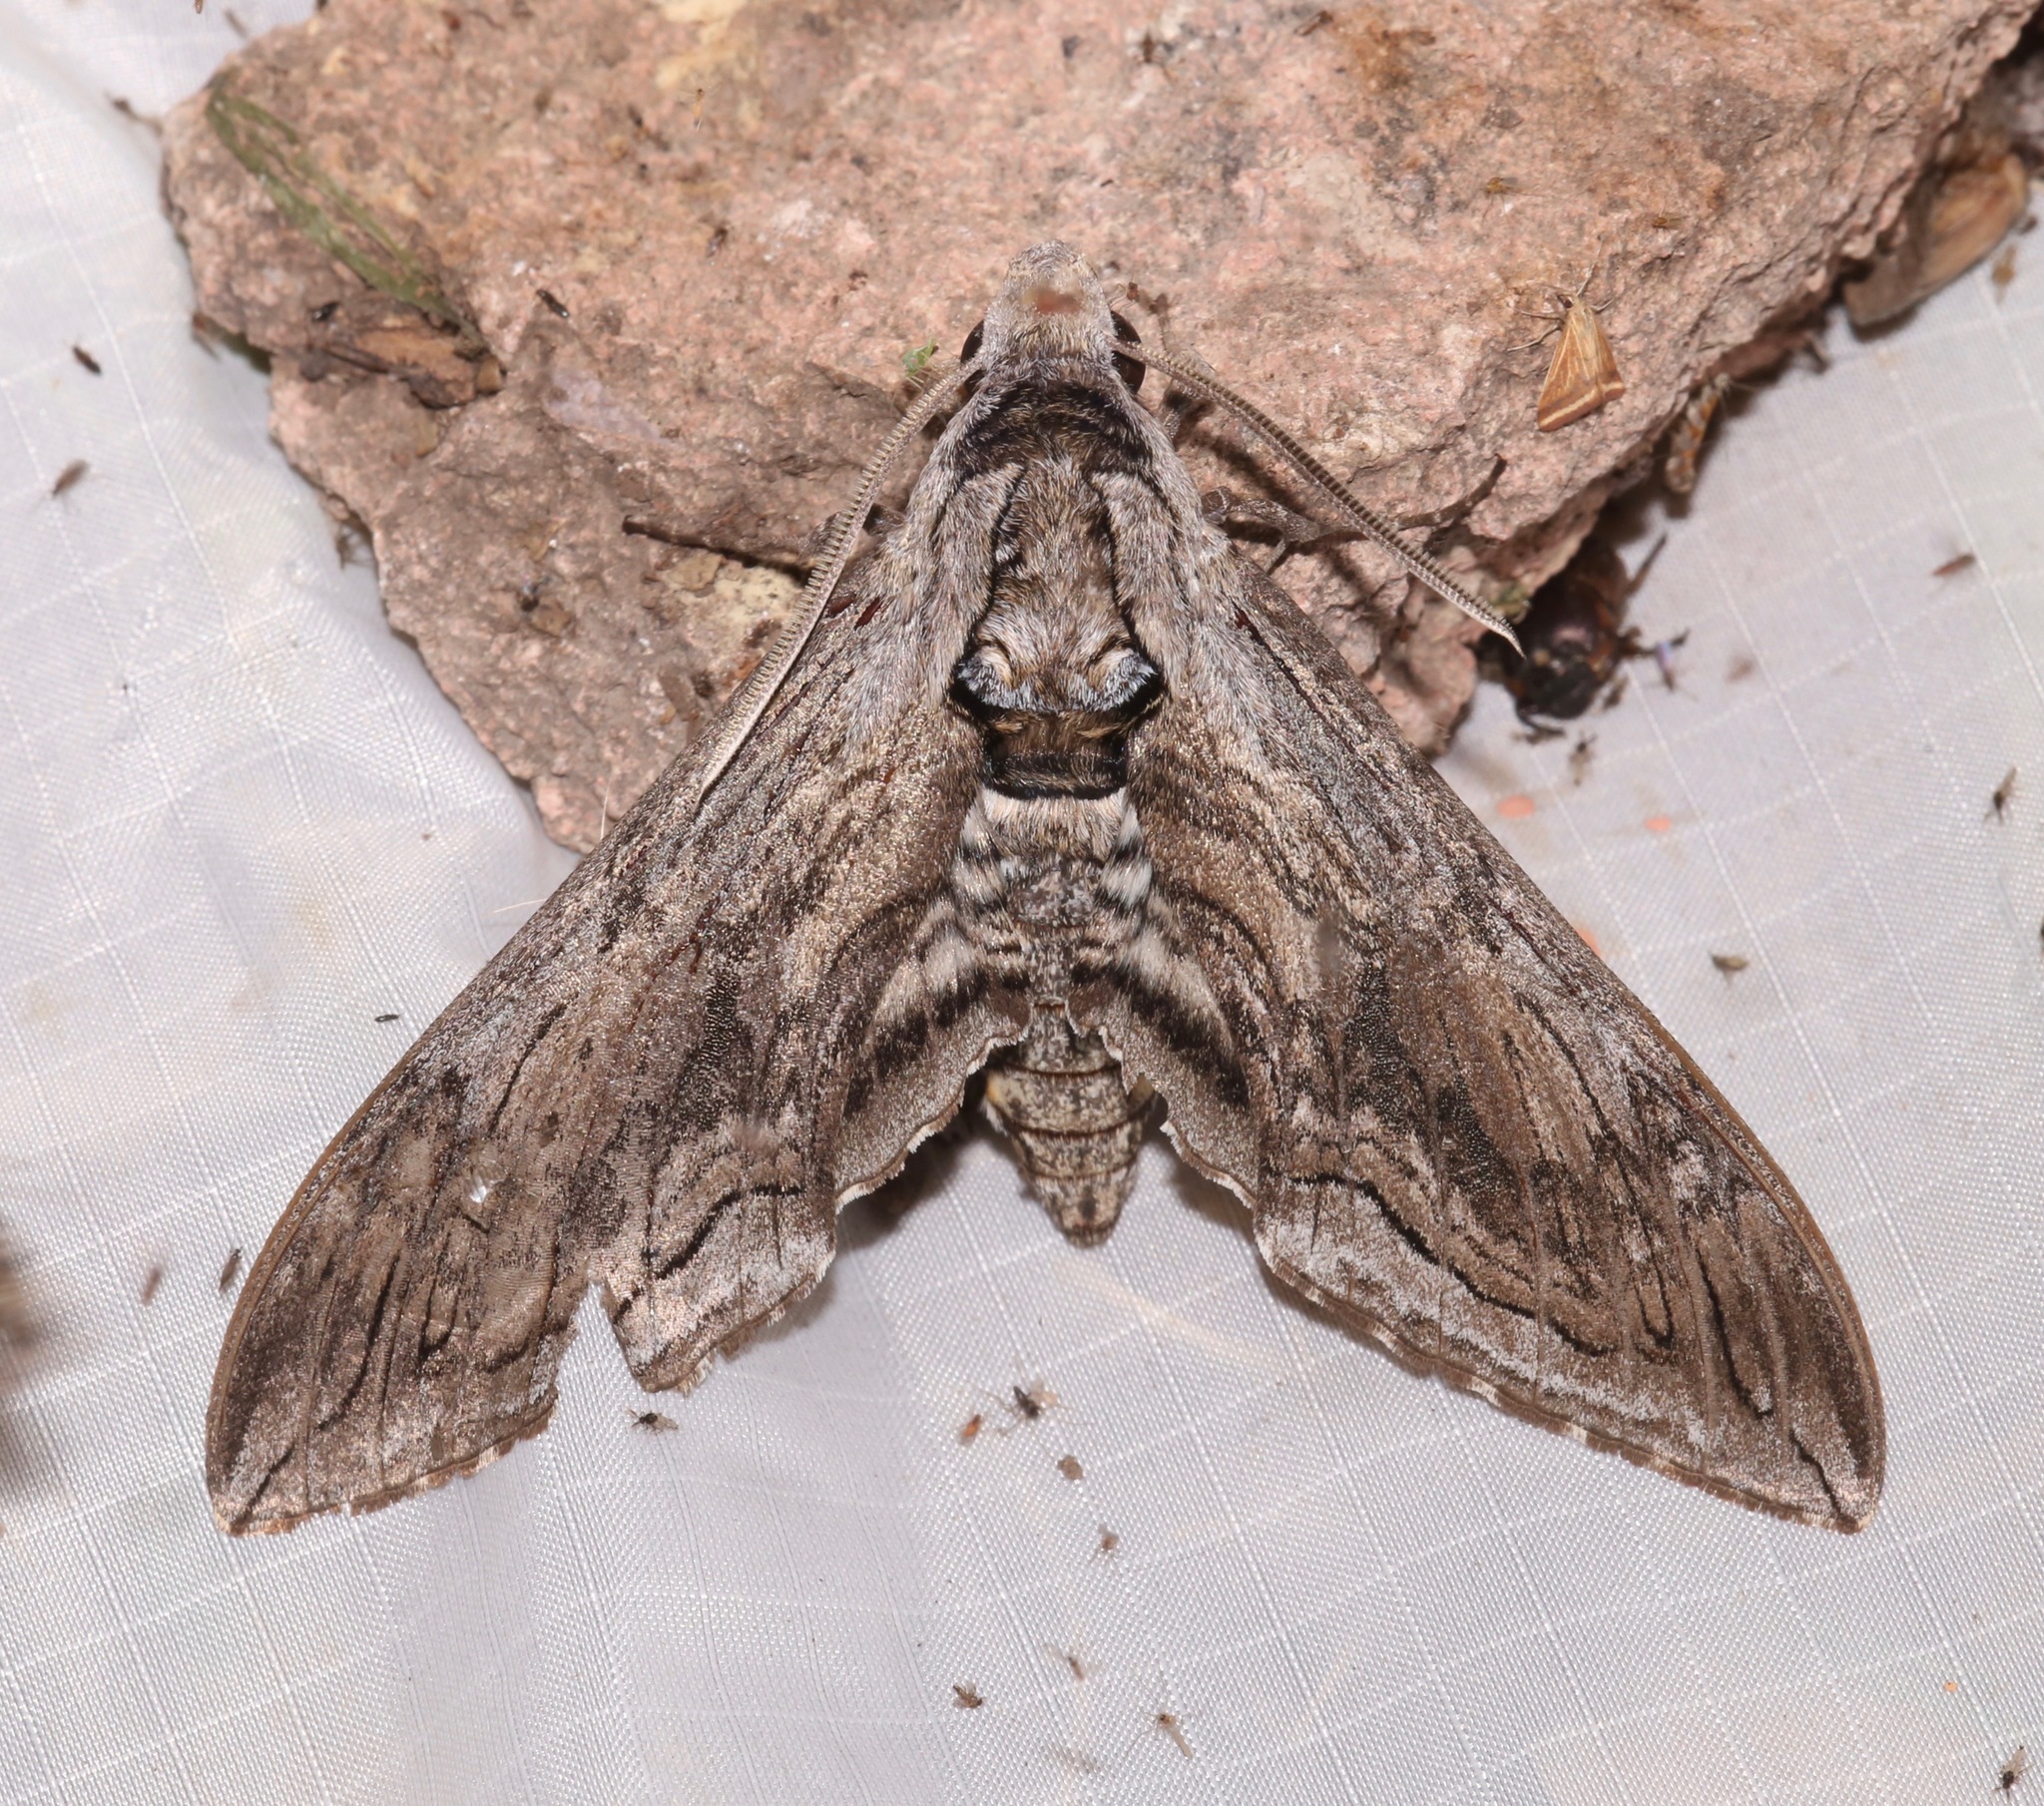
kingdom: Animalia
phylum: Arthropoda
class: Insecta
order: Lepidoptera
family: Sphingidae
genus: Manduca
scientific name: Manduca quinquemaculatus
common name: Five-spotted hawk-moth
